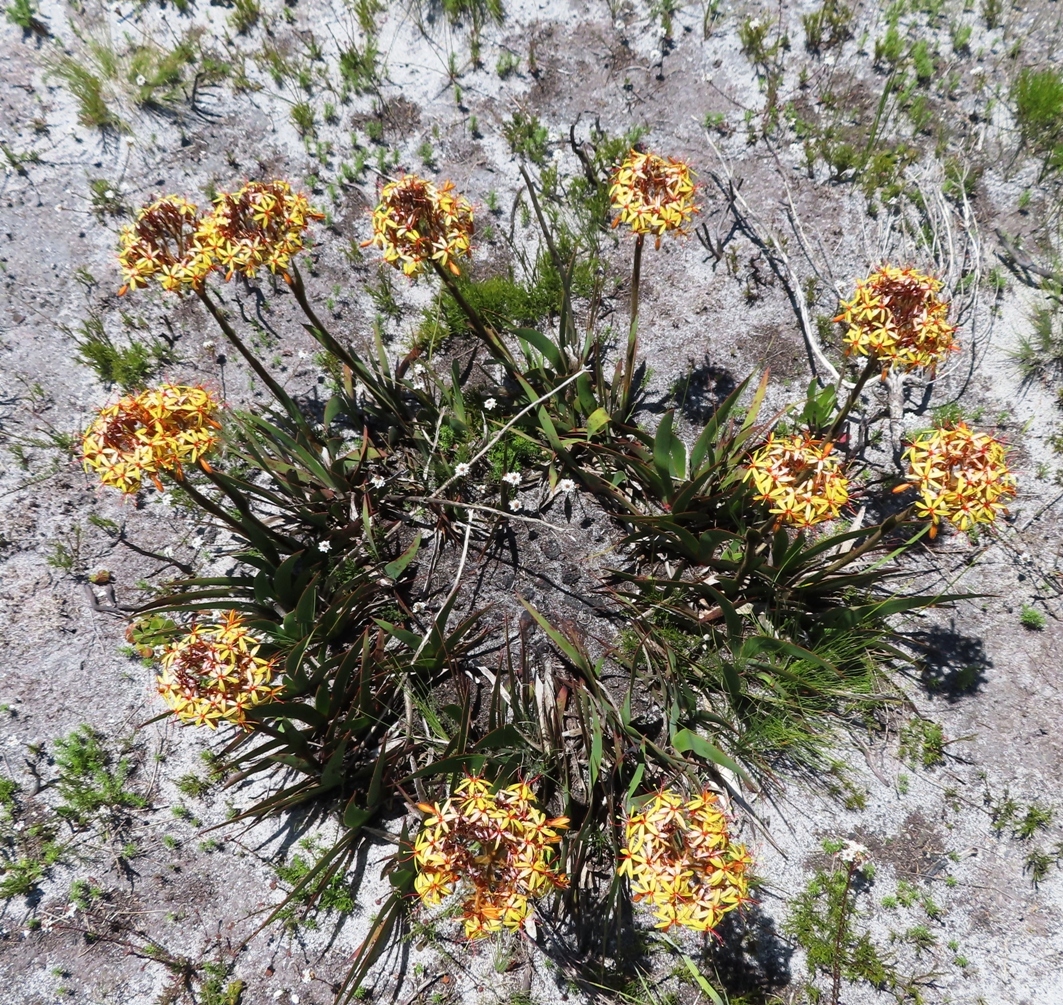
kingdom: Plantae
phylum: Tracheophyta
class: Liliopsida
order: Commelinales
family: Haemodoraceae
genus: Dilatris
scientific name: Dilatris viscosa
